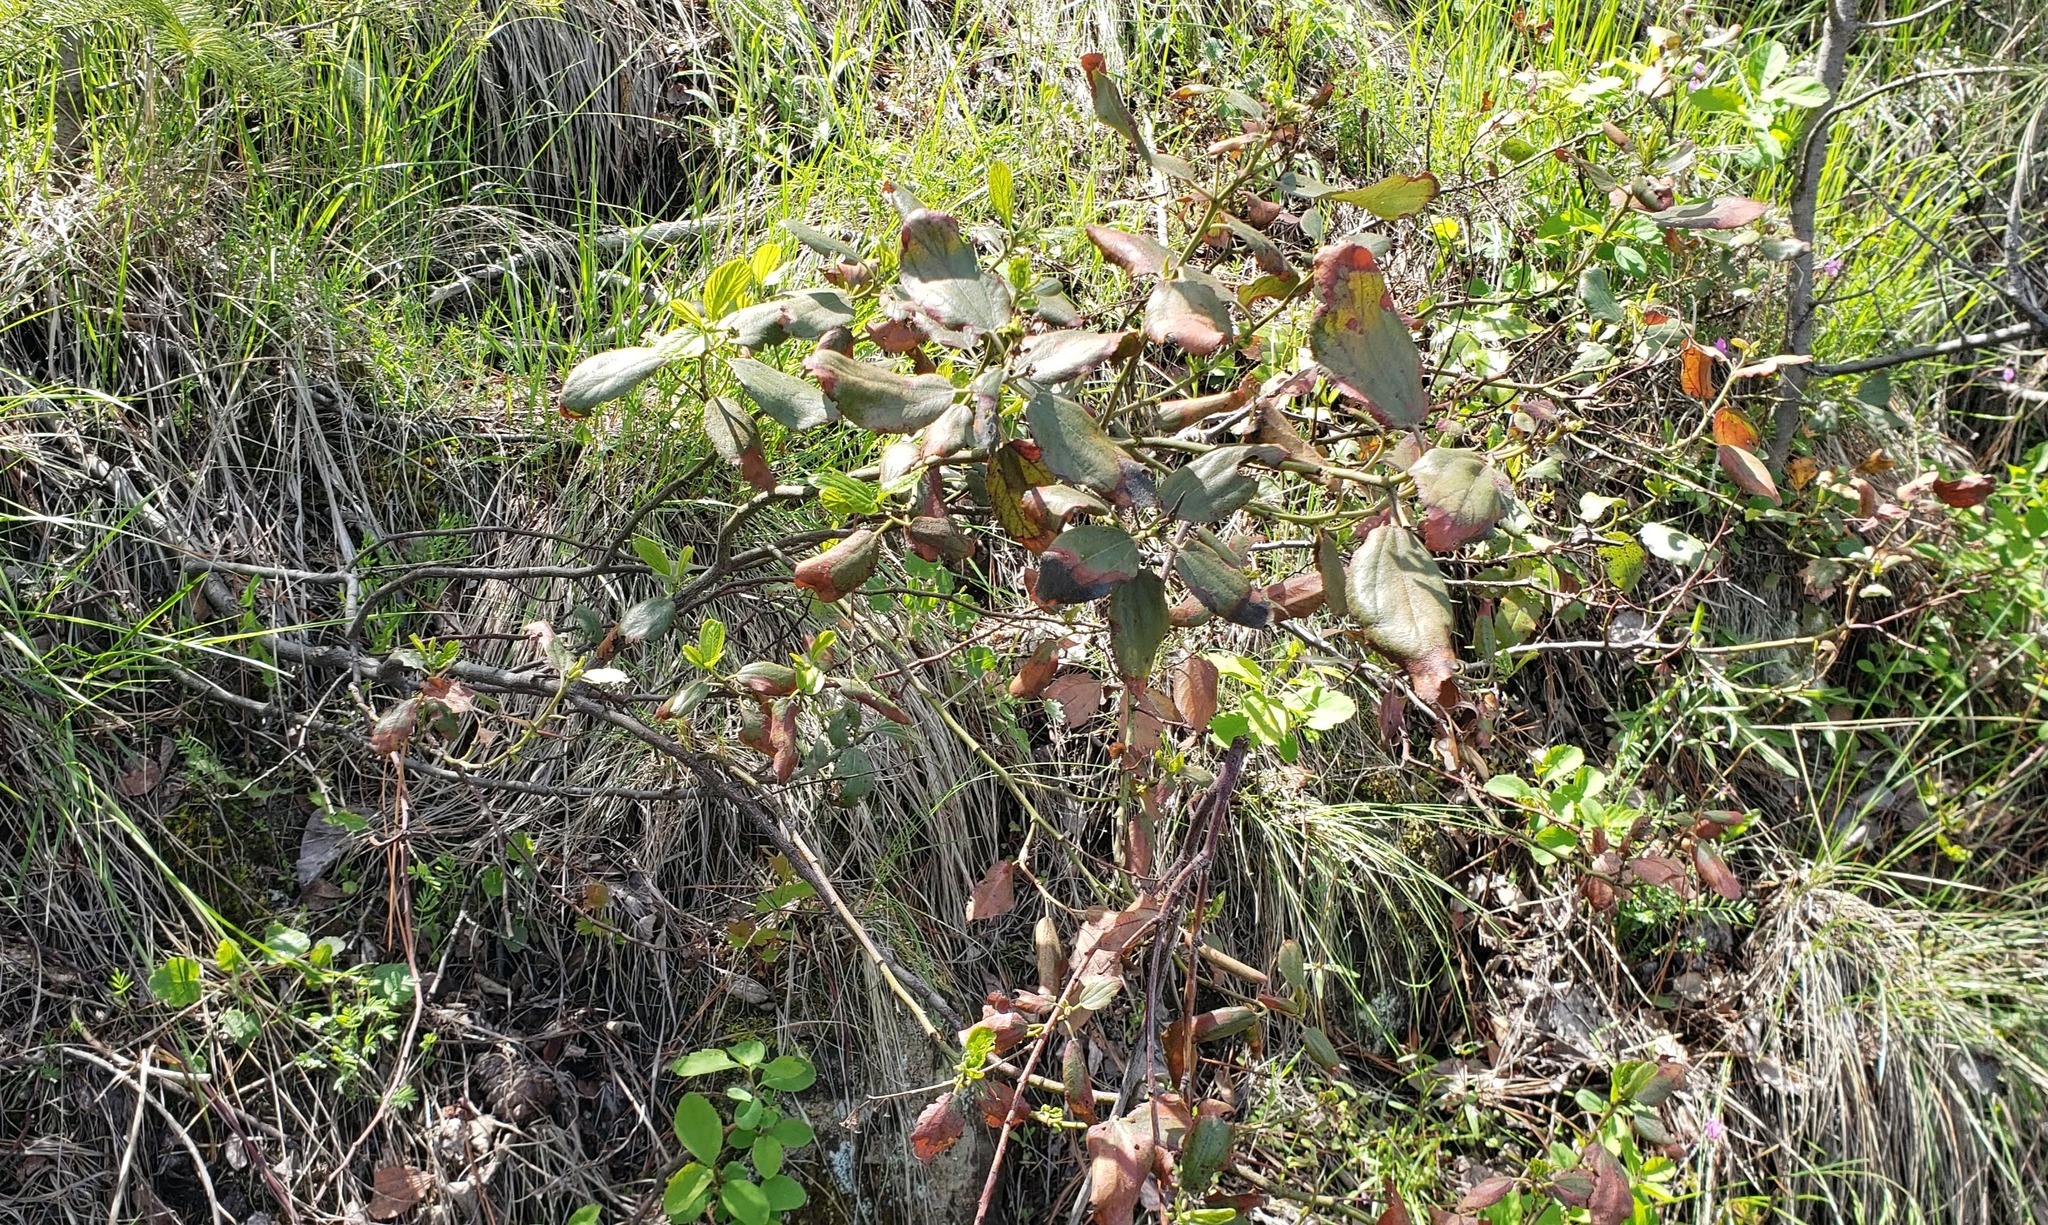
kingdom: Plantae
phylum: Tracheophyta
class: Magnoliopsida
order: Rosales
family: Rhamnaceae
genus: Ceanothus
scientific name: Ceanothus velutinus
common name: Snowbrush
